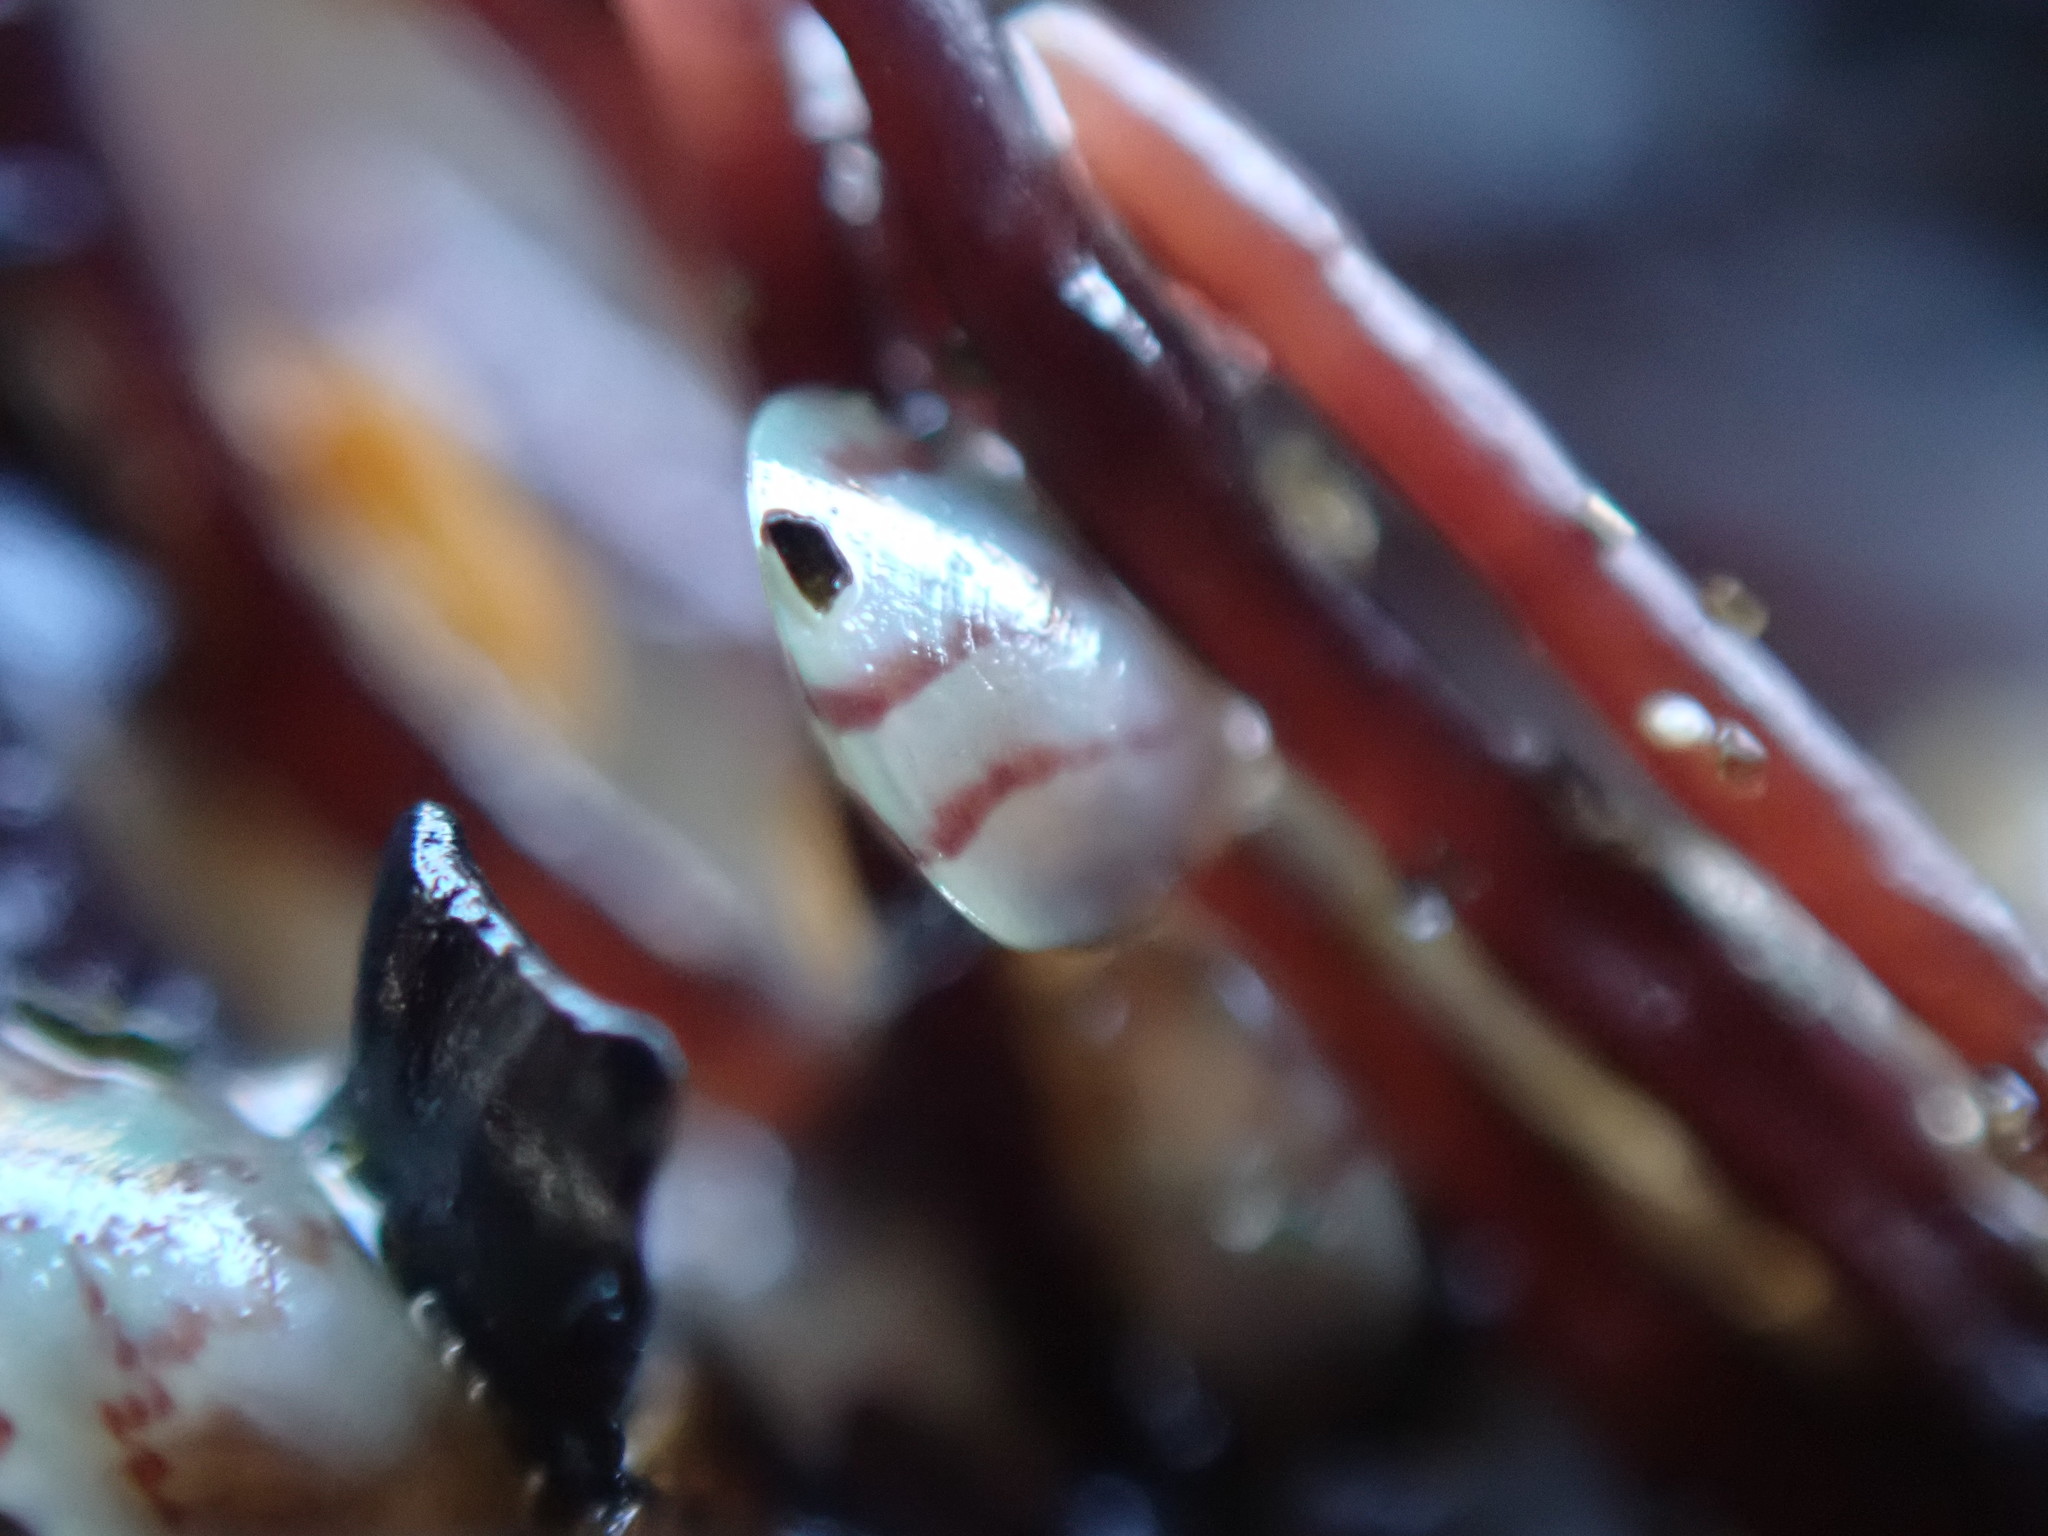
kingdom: Animalia
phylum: Mollusca
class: Bivalvia
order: Mytilida
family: Mytilidae
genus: Perna
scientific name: Perna canaliculus
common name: New zealand greenshelltm
